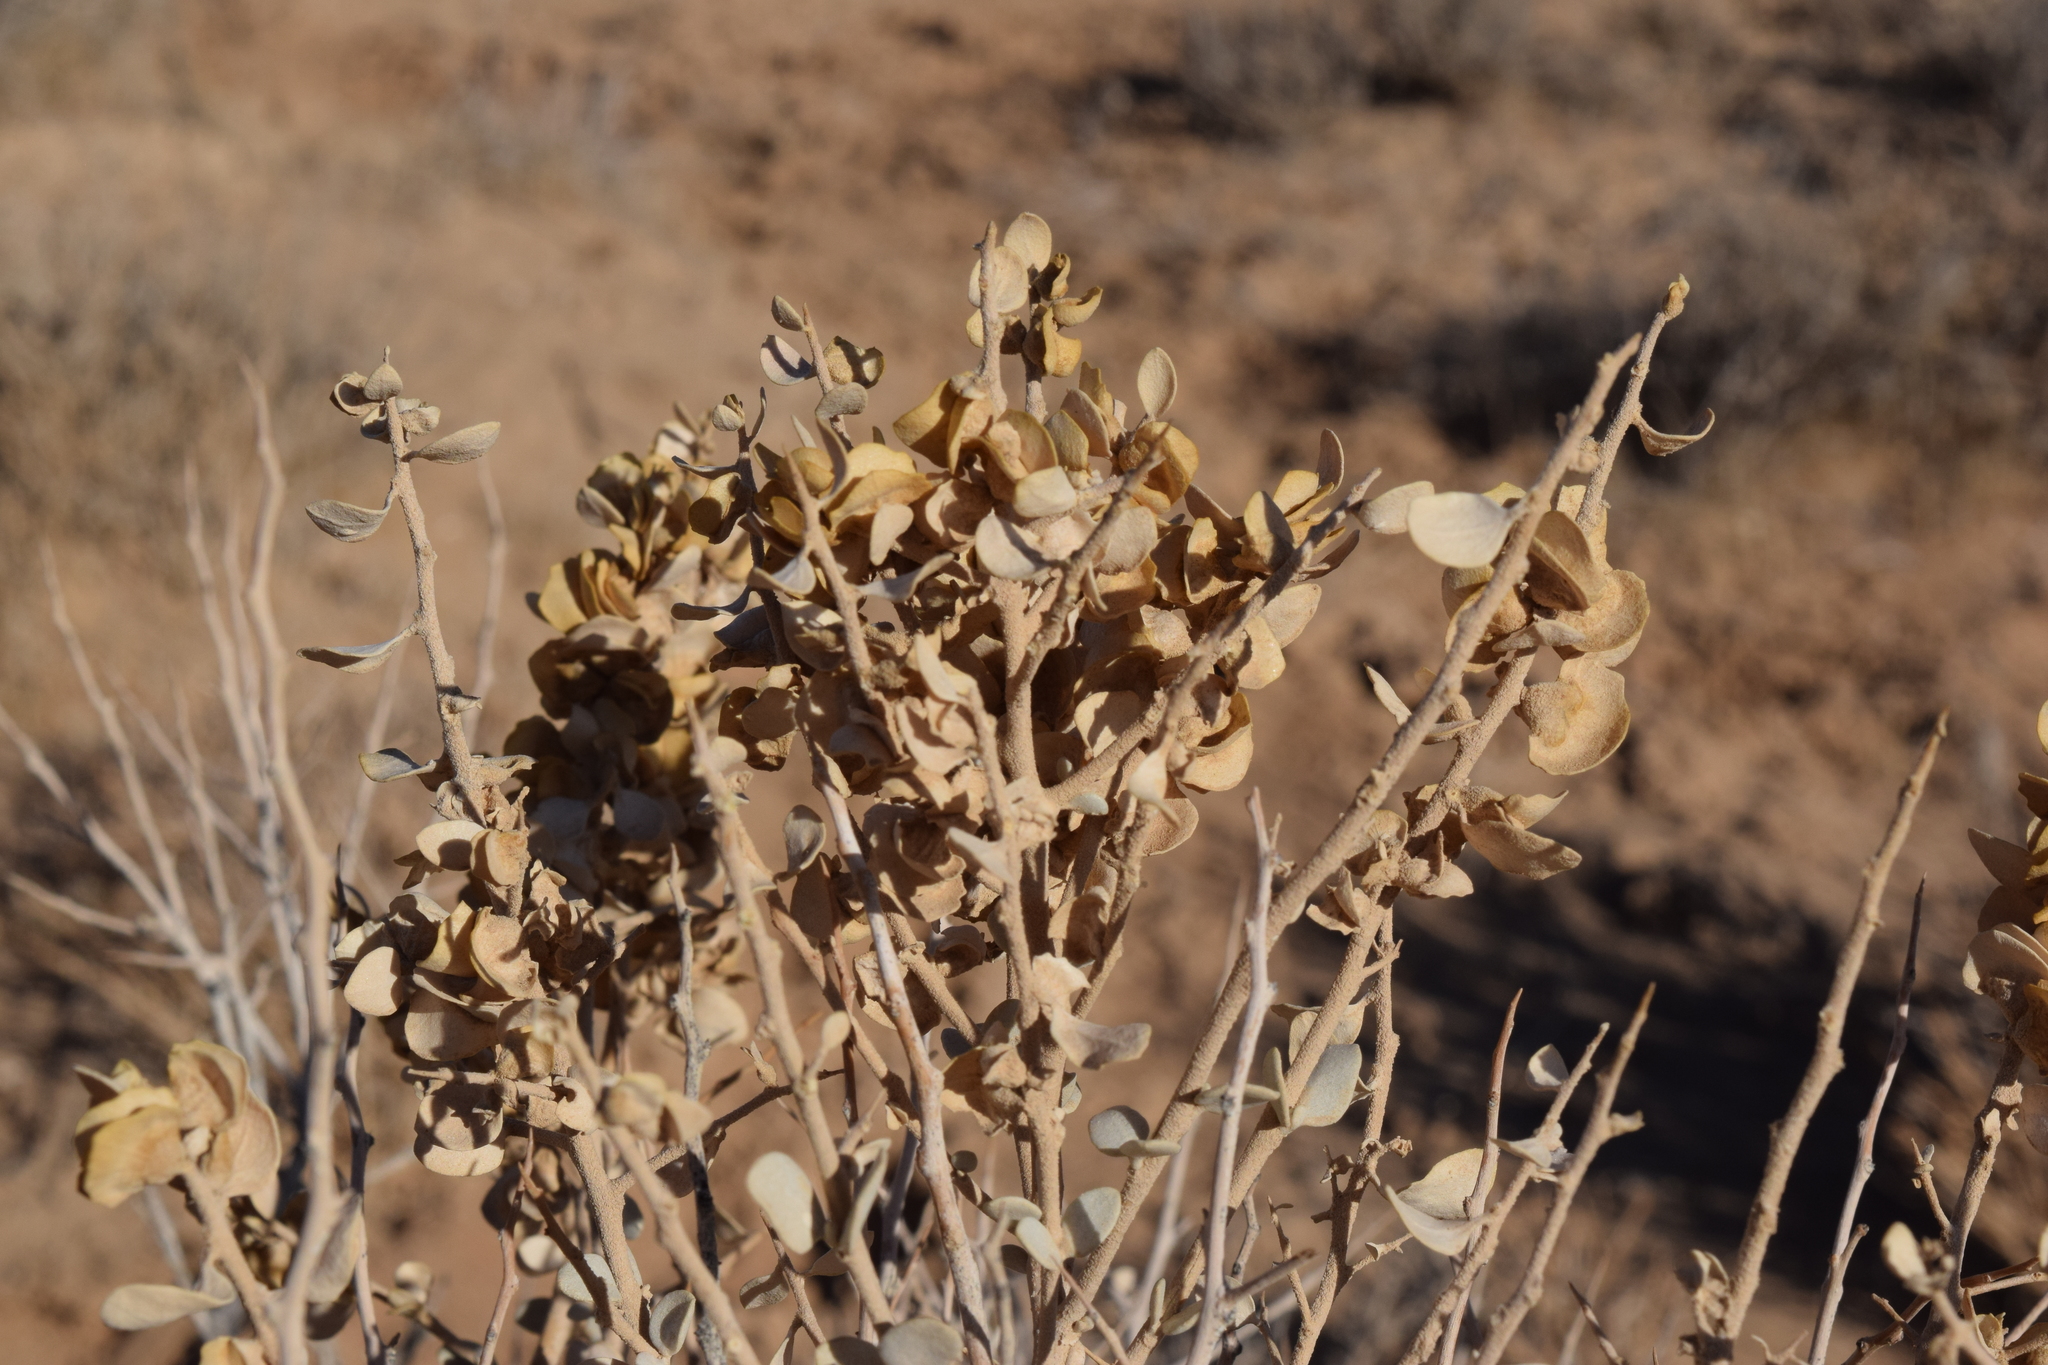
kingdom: Plantae
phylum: Tracheophyta
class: Magnoliopsida
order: Caryophyllales
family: Amaranthaceae
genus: Atriplex
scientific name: Atriplex confertifolia
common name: Shadscale
